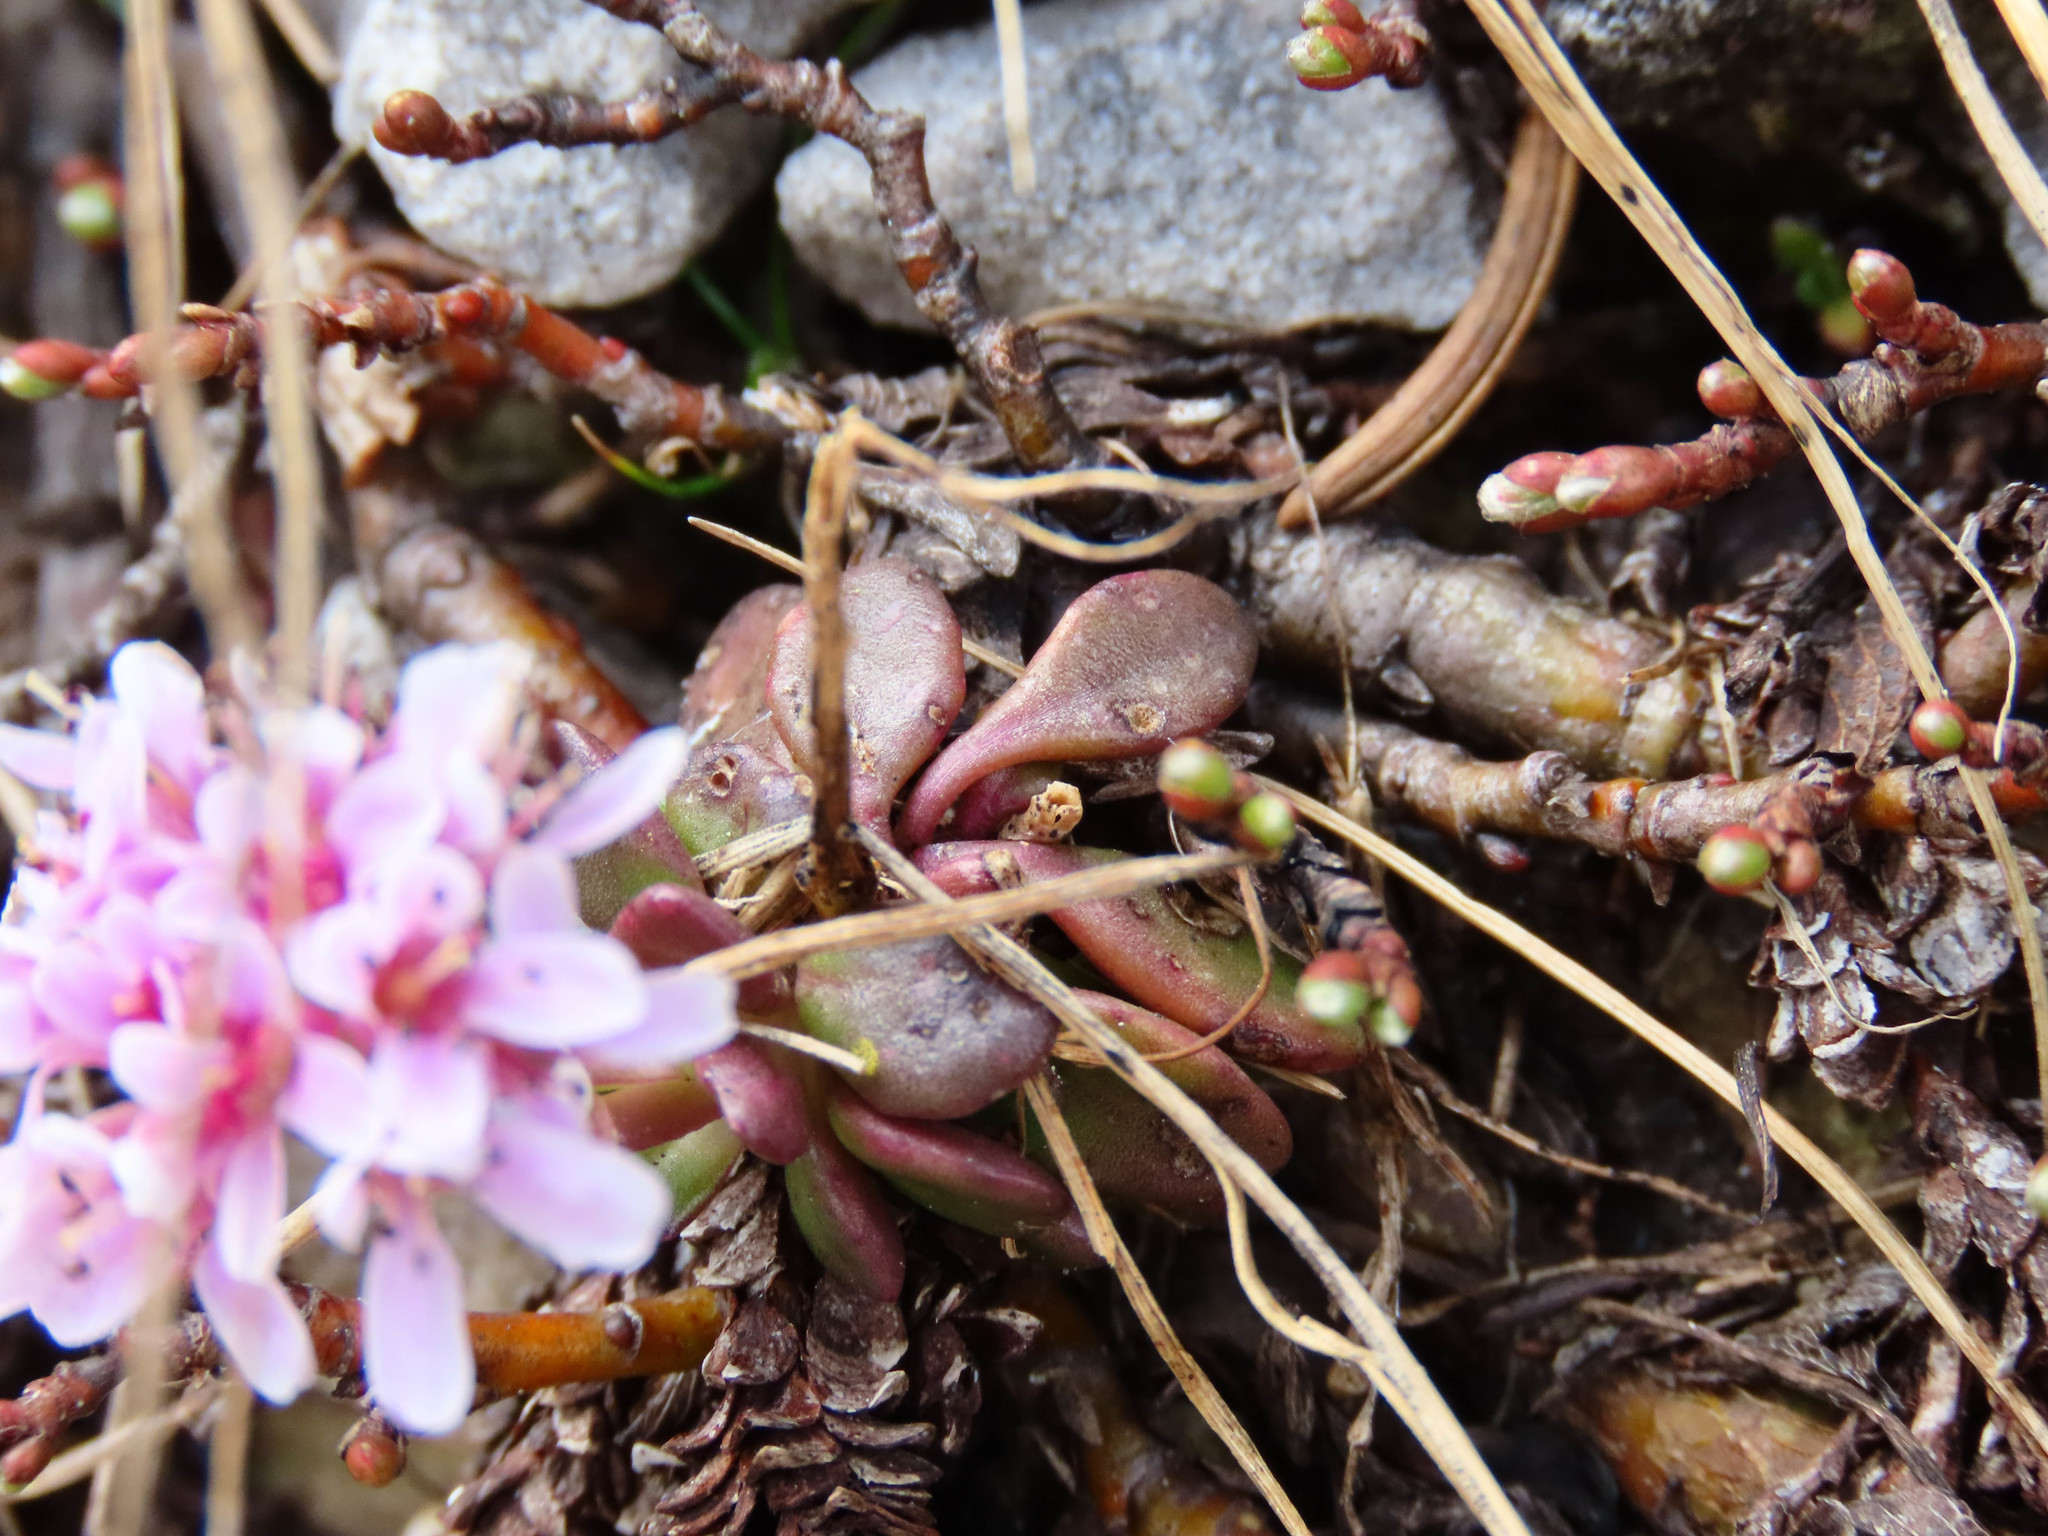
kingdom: Plantae
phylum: Tracheophyta
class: Magnoliopsida
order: Brassicales
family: Brassicaceae
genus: Noccaea
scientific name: Noccaea stilosa
